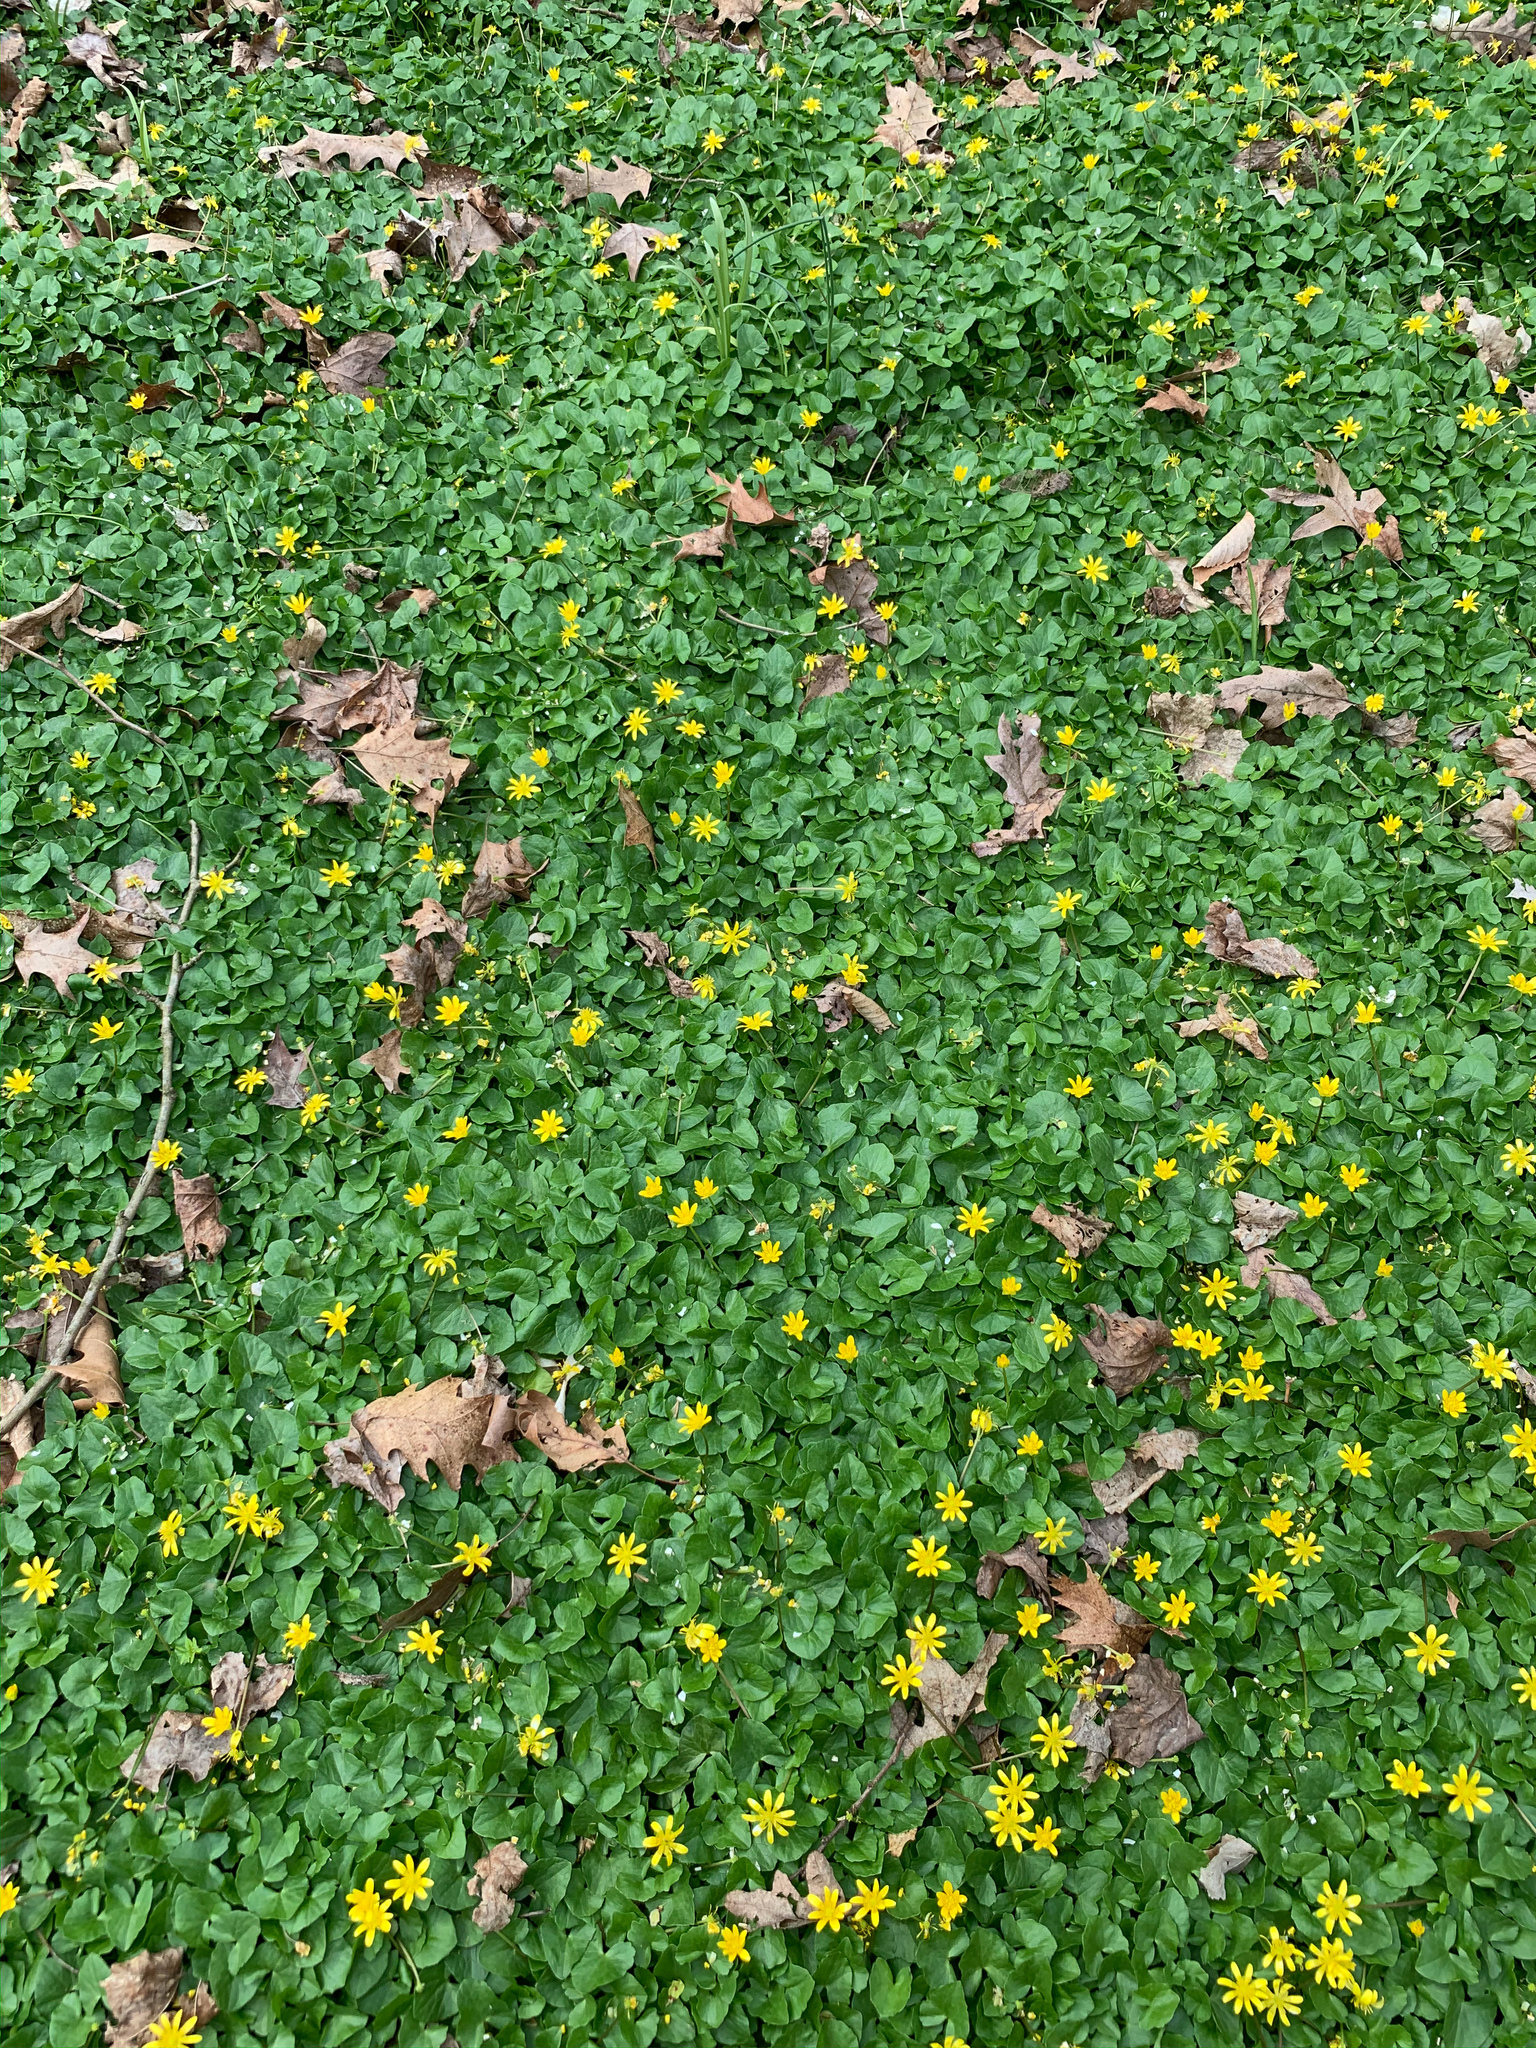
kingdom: Plantae
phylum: Tracheophyta
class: Magnoliopsida
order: Ranunculales
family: Ranunculaceae
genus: Ficaria
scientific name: Ficaria verna
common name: Lesser celandine
